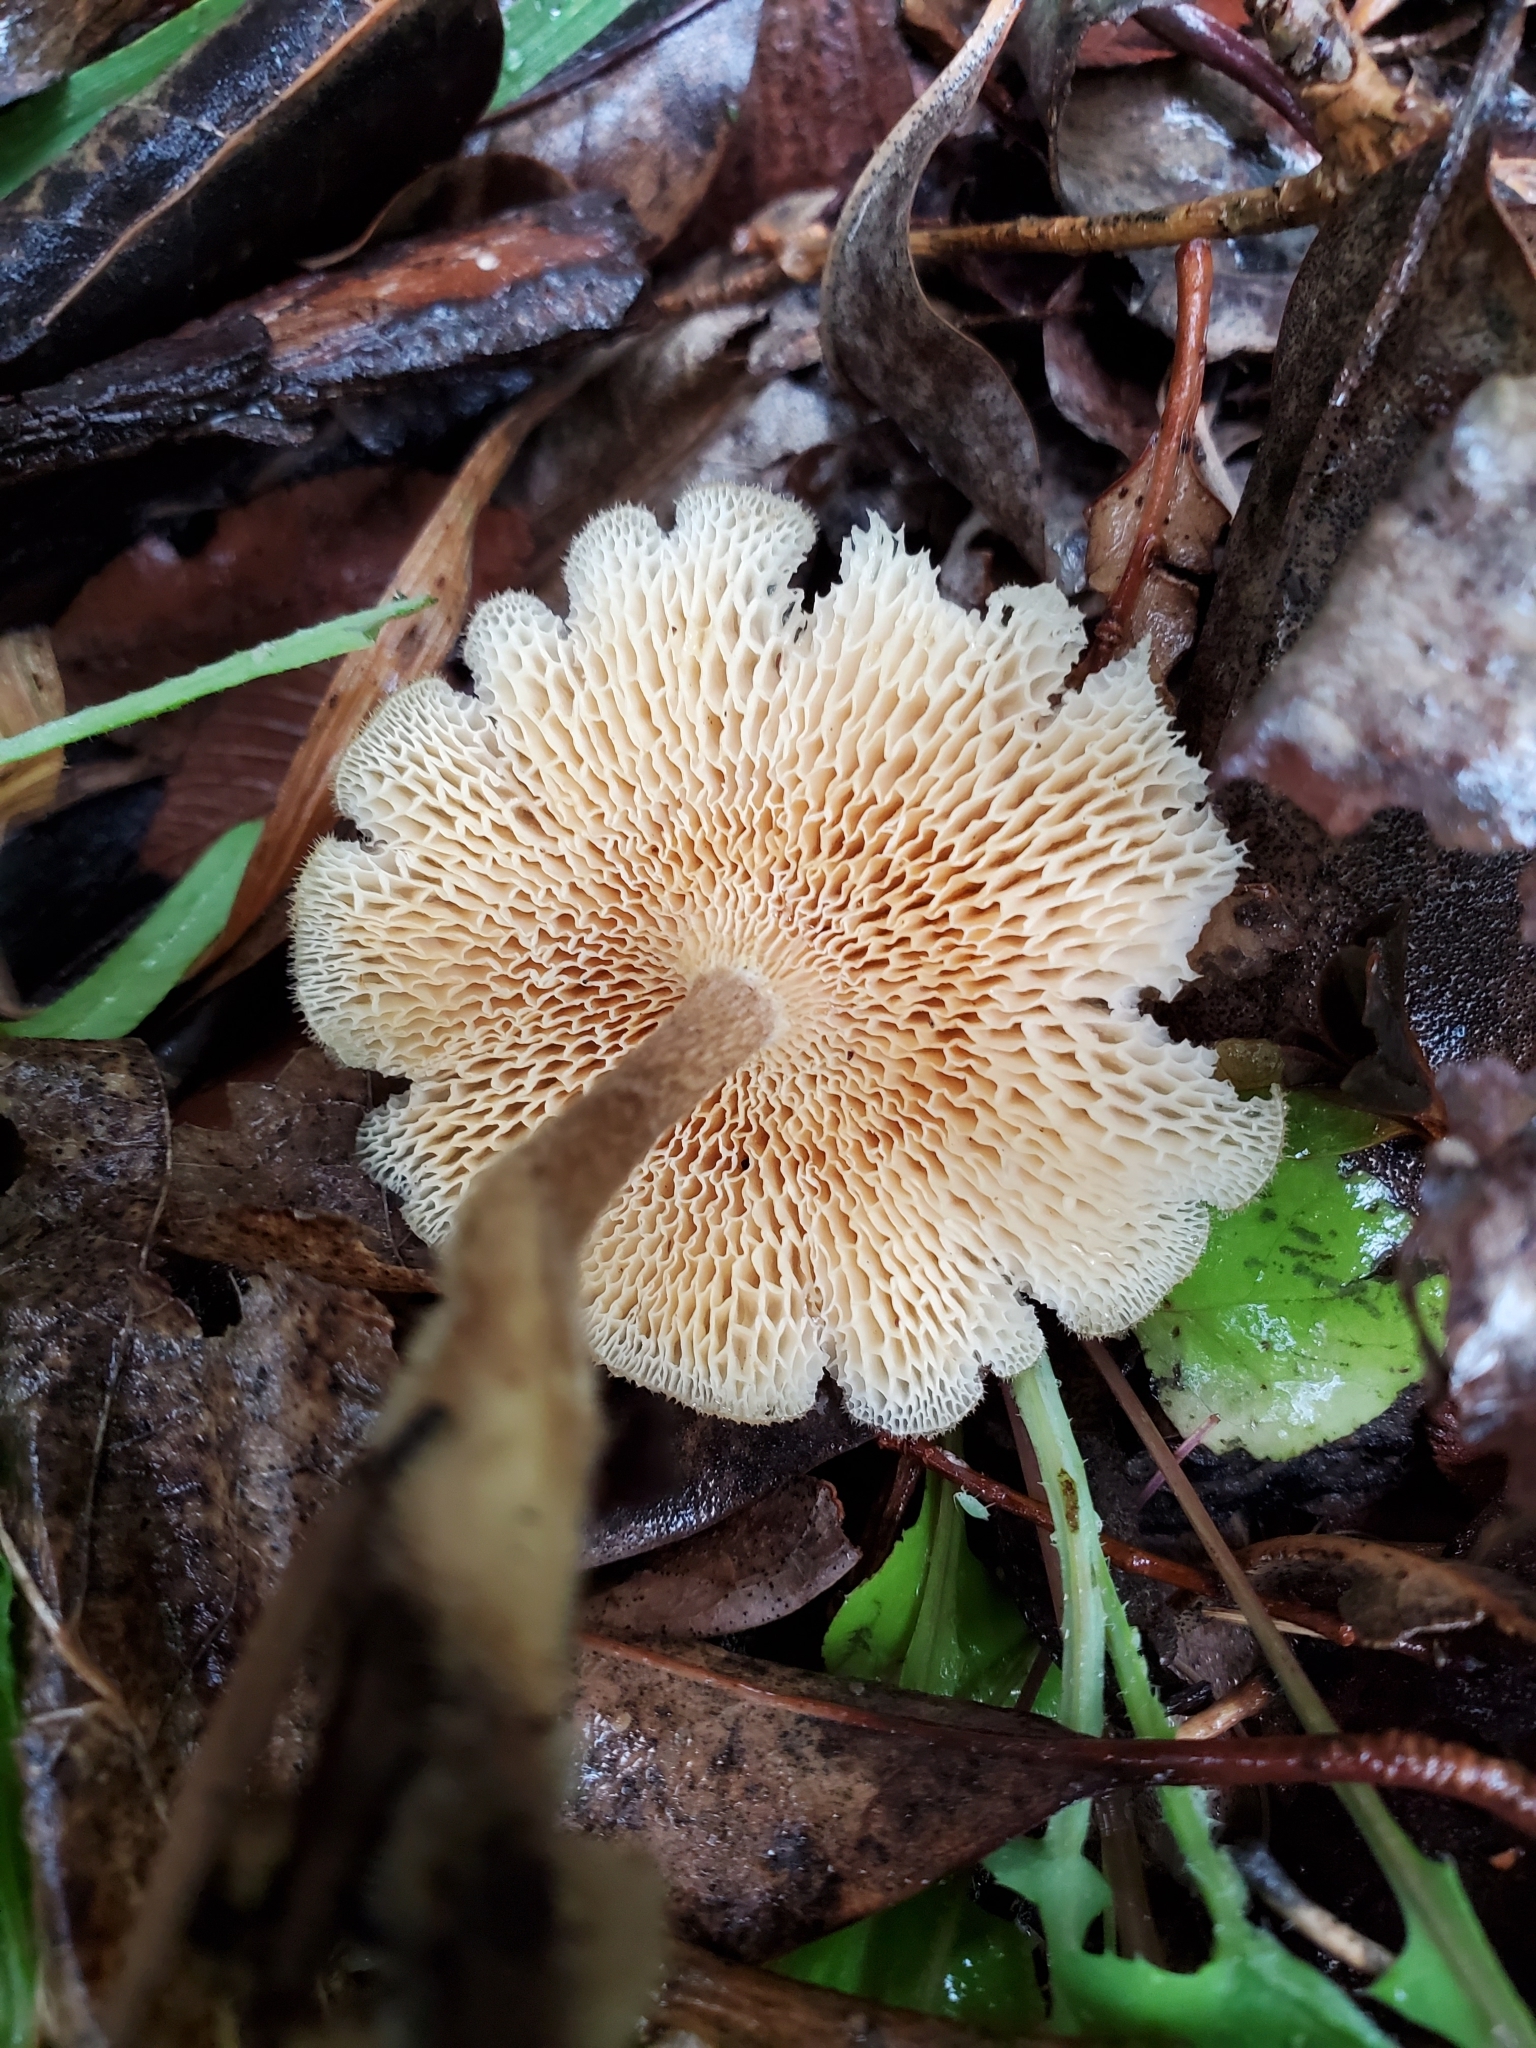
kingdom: Fungi
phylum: Basidiomycota
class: Agaricomycetes
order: Polyporales
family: Polyporaceae
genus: Lentinus
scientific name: Lentinus arcularius
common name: Spring polypore
